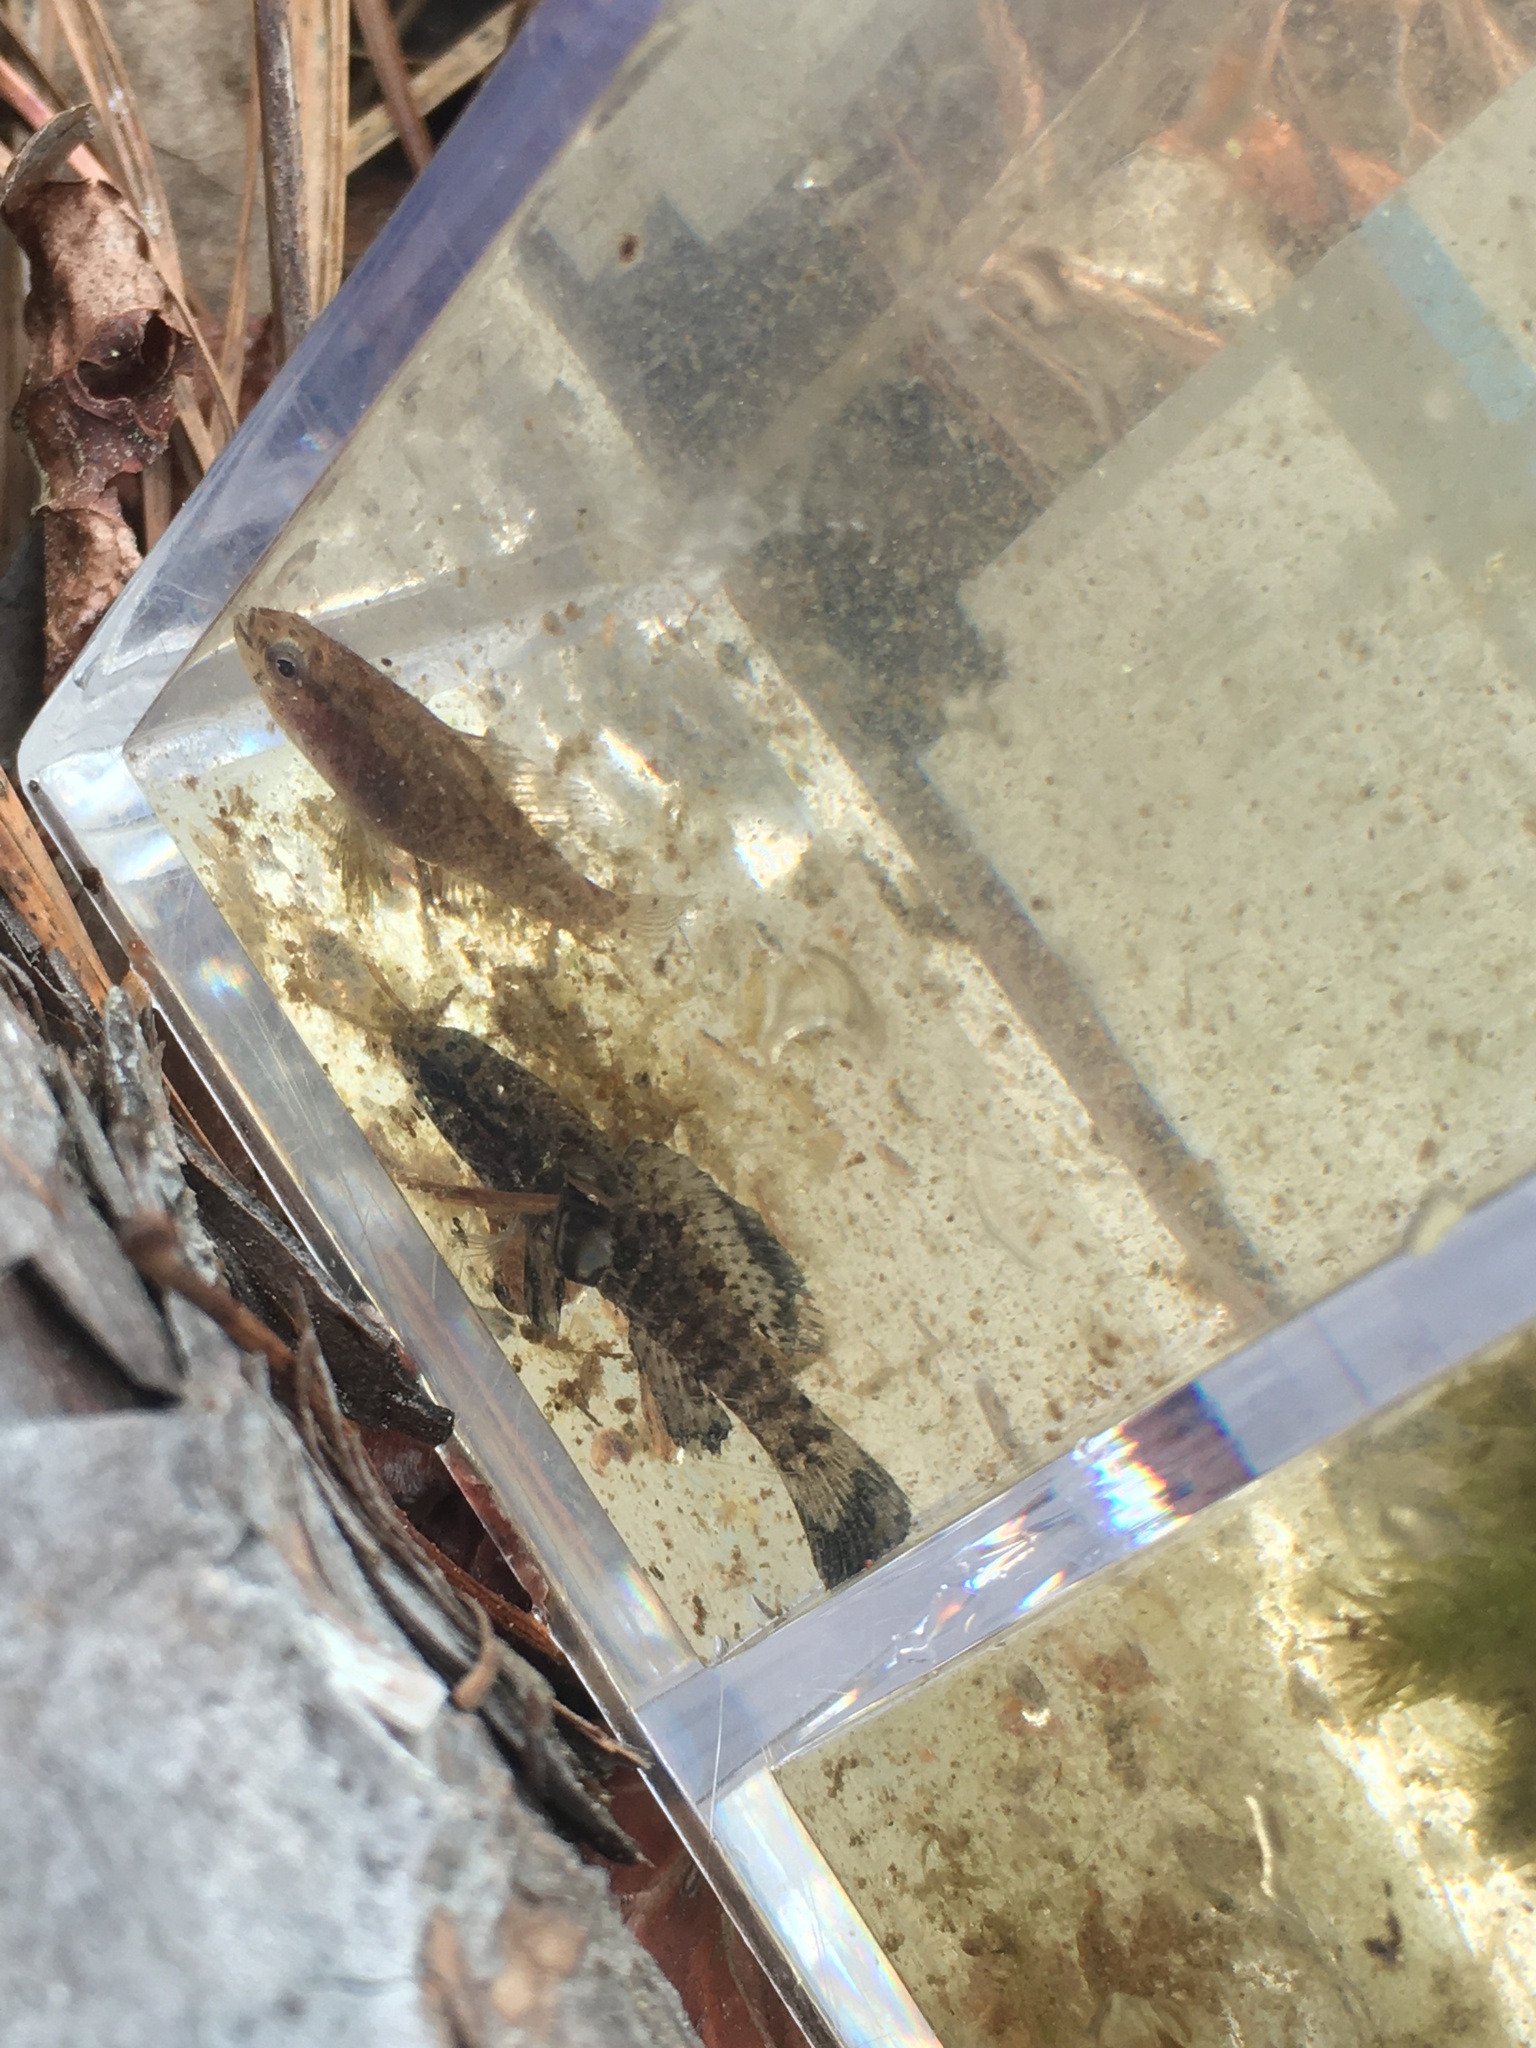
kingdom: Animalia
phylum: Chordata
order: Perciformes
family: Elassomatidae
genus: Elassoma
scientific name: Elassoma zonatum
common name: Banded pygmy sunfish
